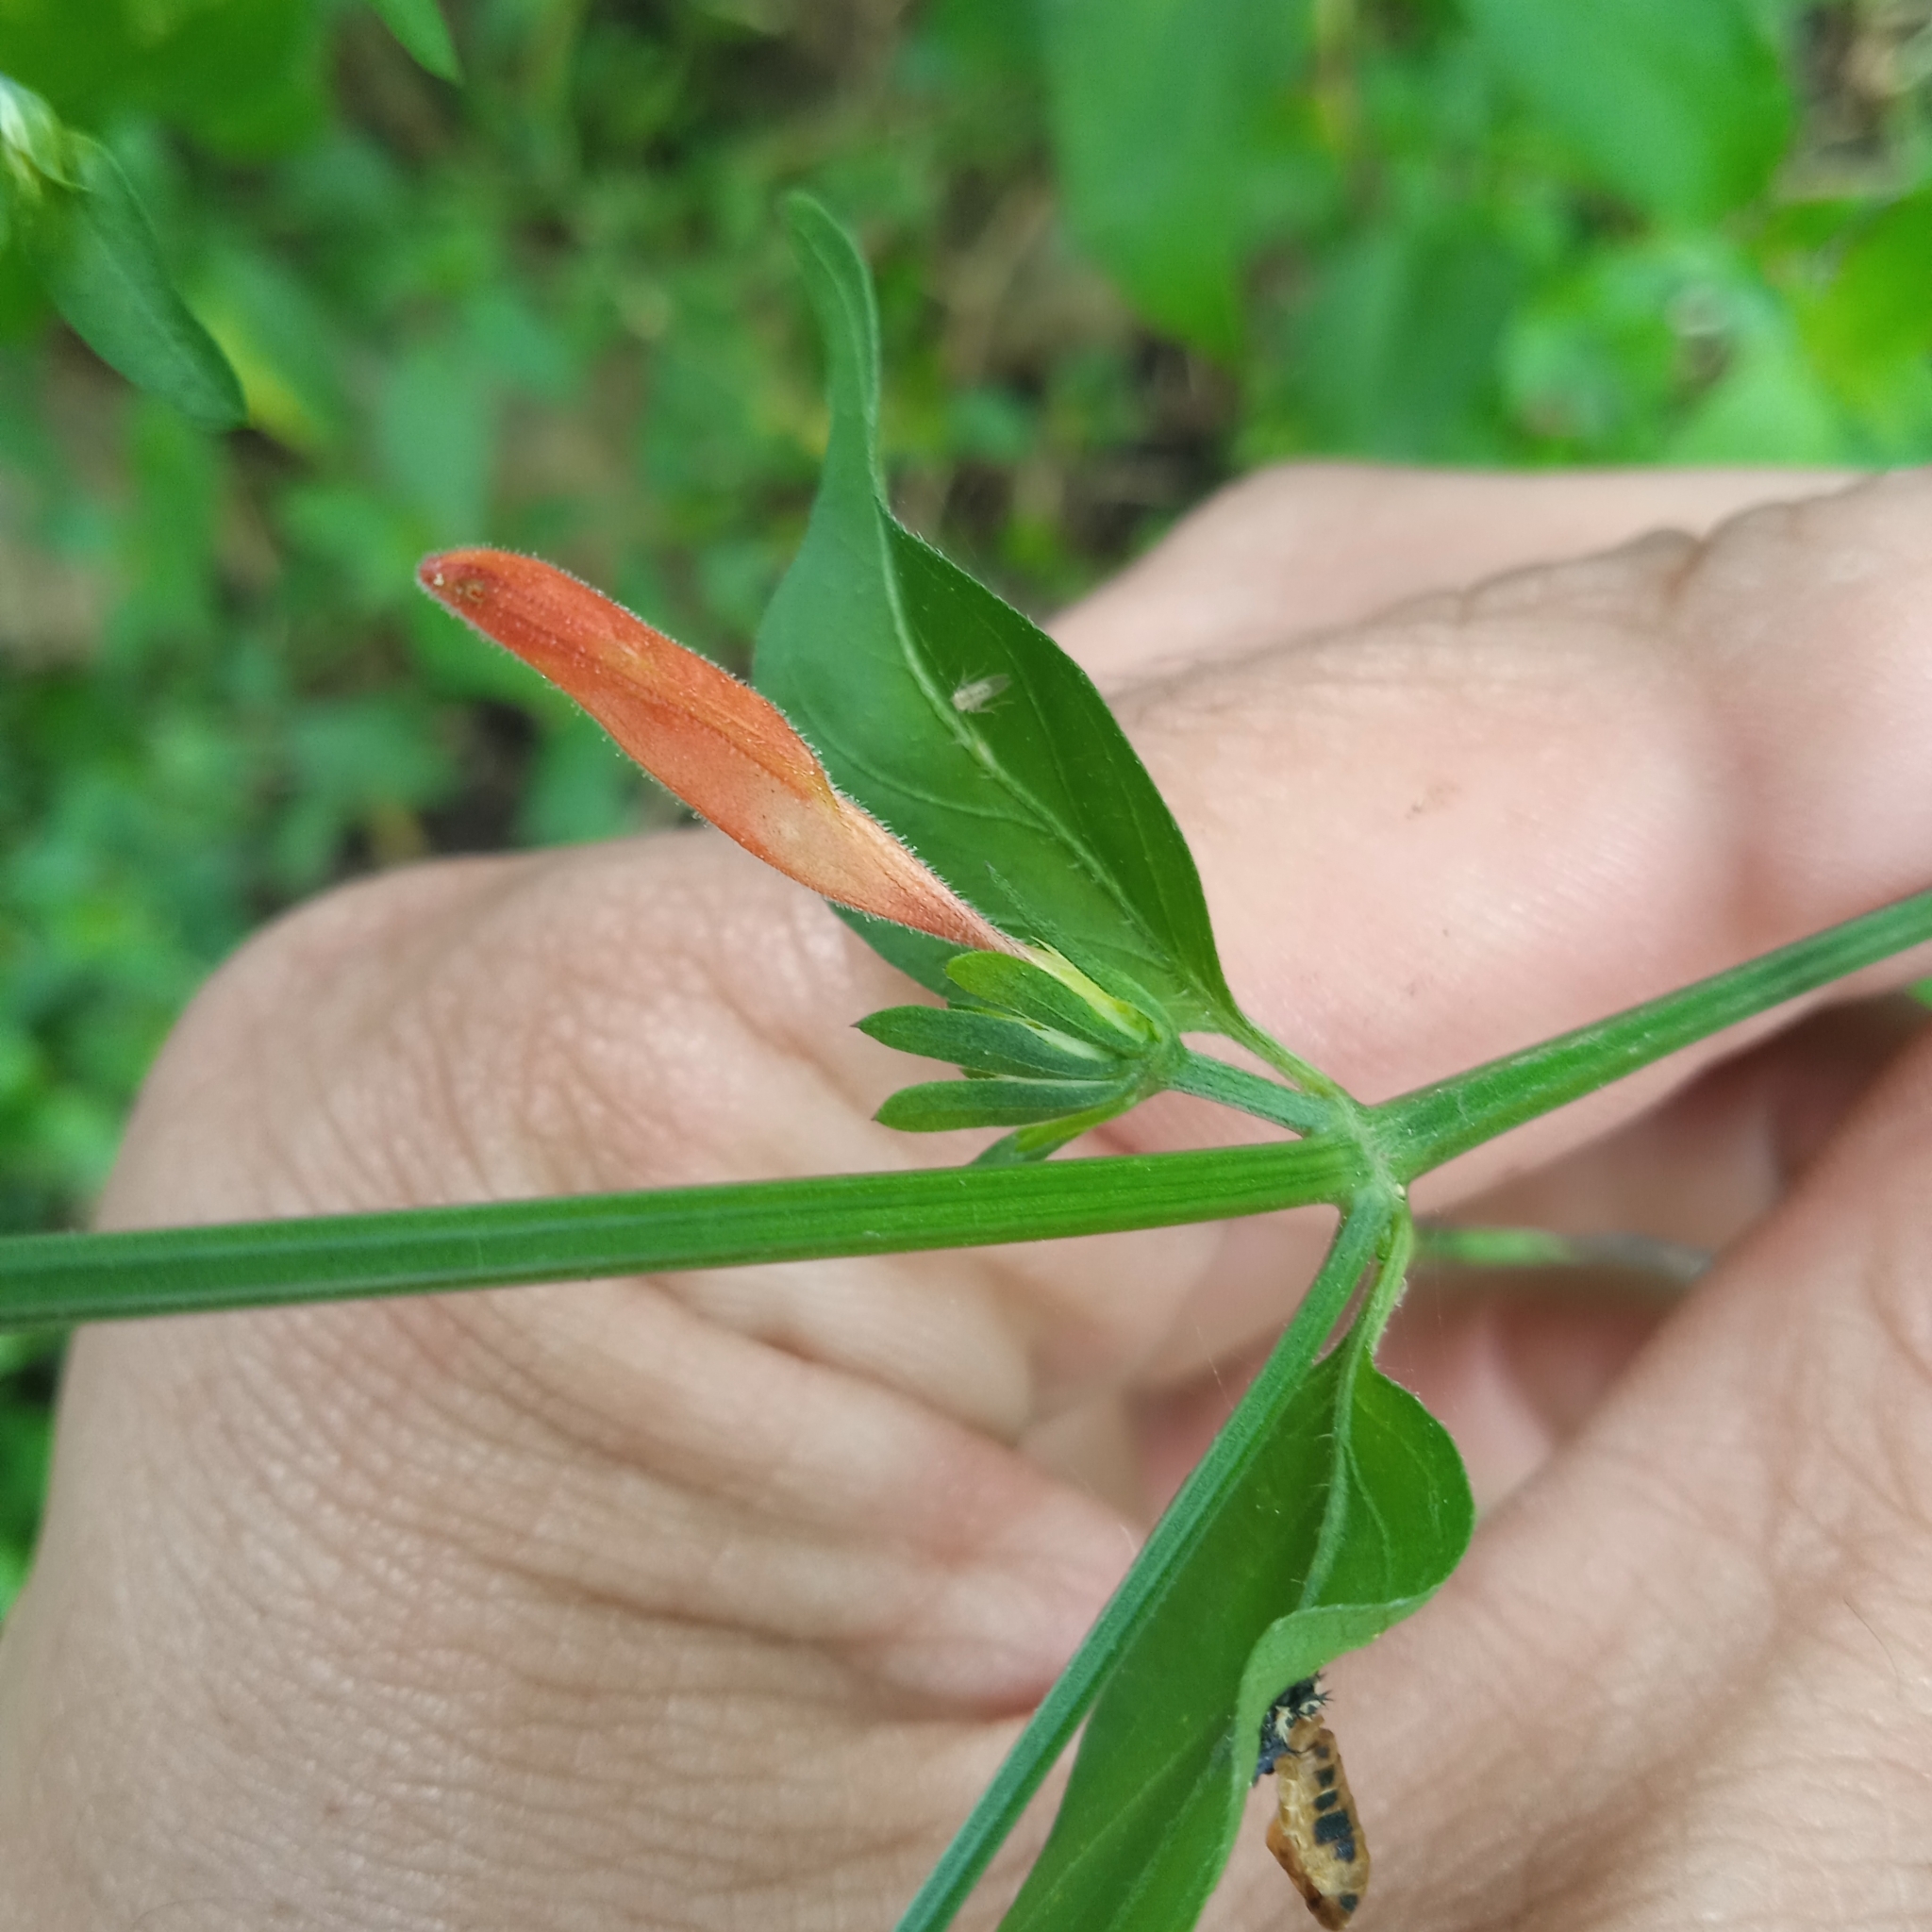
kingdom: Plantae
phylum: Tracheophyta
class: Magnoliopsida
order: Lamiales
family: Acanthaceae
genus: Dicliptera
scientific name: Dicliptera squarrosa
